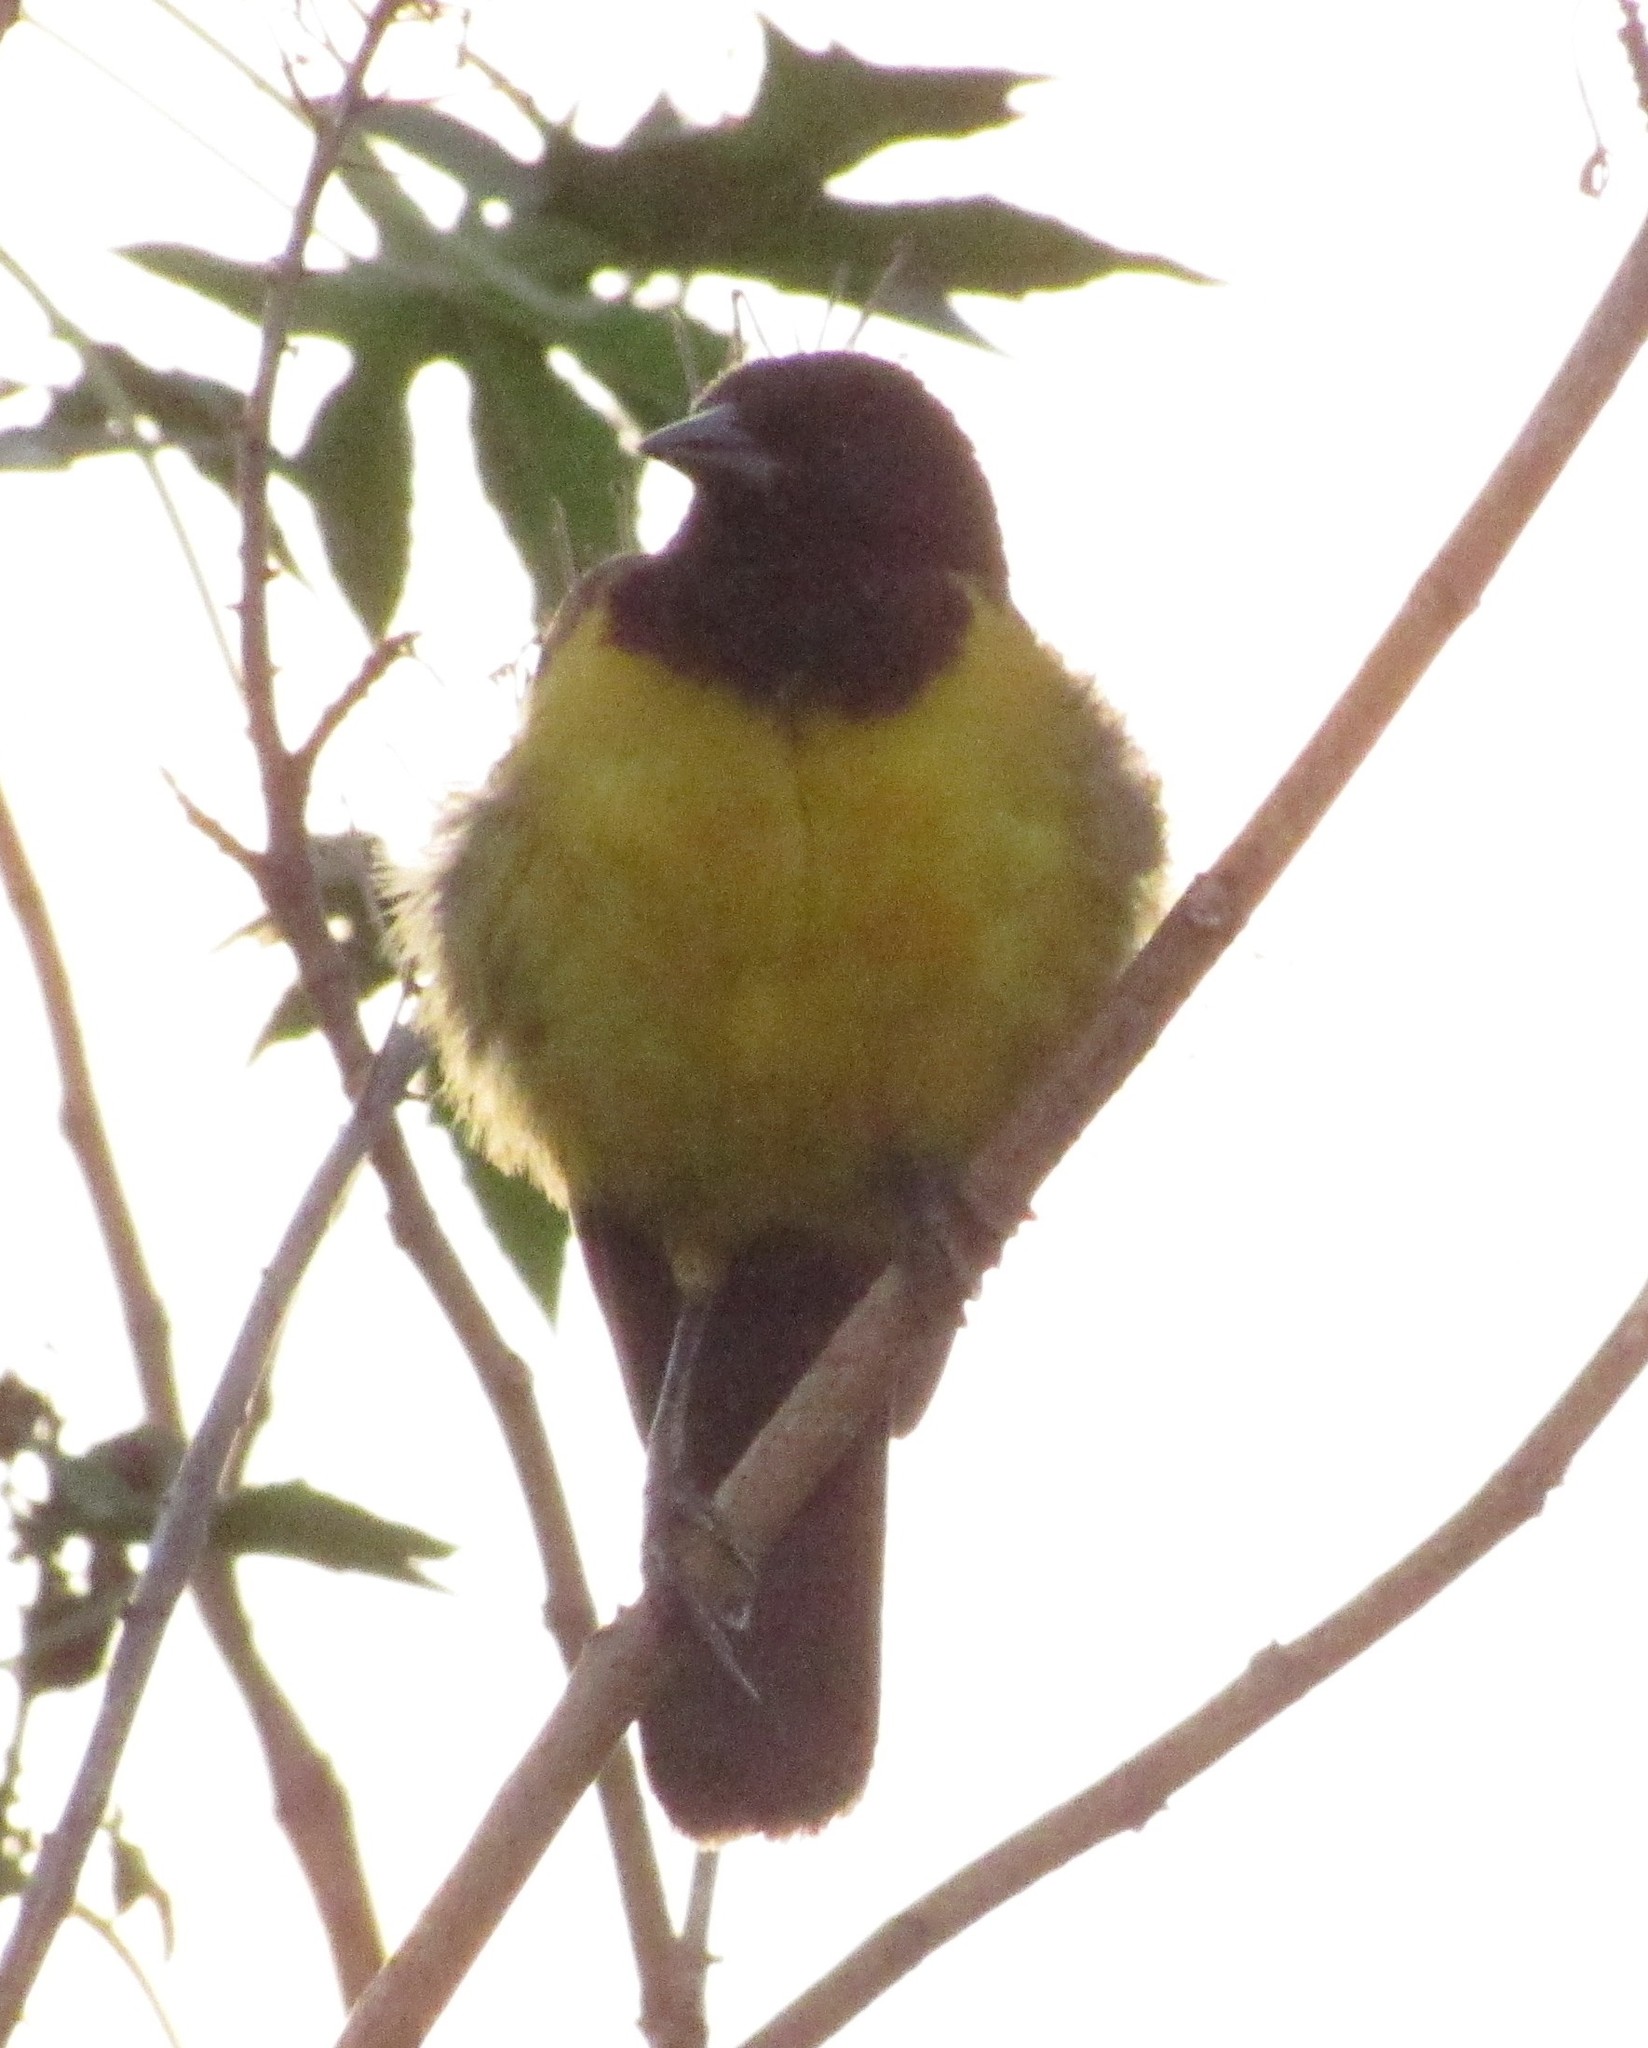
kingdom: Animalia
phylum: Chordata
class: Aves
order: Passeriformes
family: Icteridae
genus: Pseudoleistes
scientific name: Pseudoleistes guirahuro
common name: Yellow-rumped marshbird
